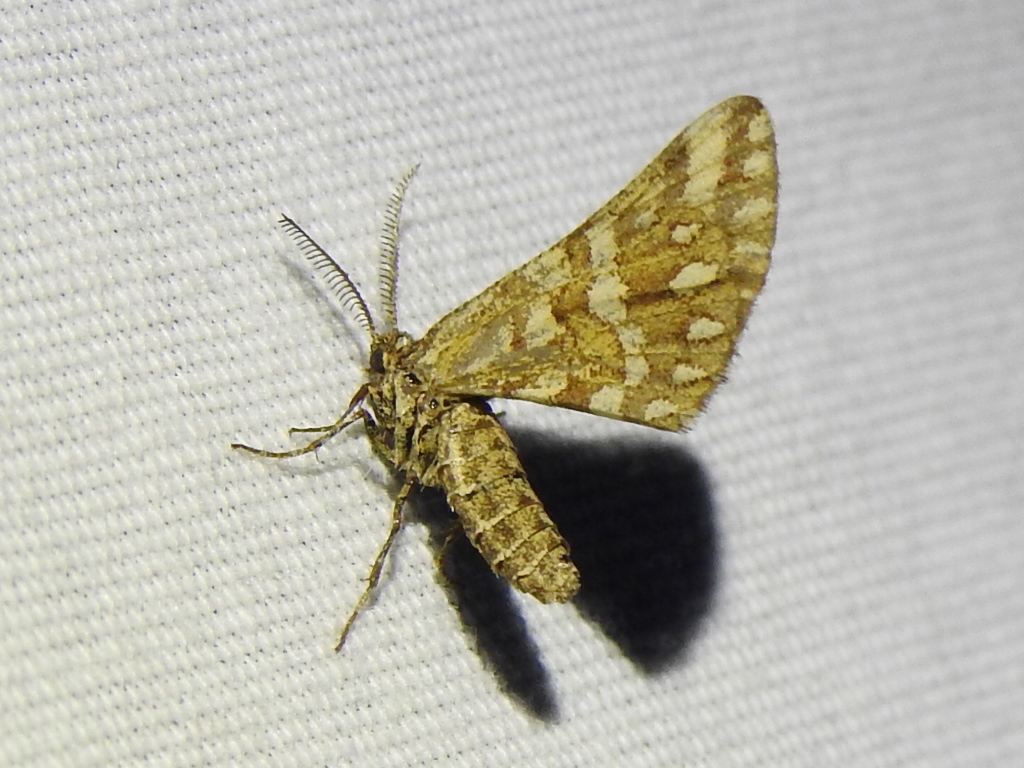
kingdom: Animalia
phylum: Arthropoda
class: Insecta
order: Lepidoptera
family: Geometridae
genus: Narraga
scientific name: Narraga fimetaria
